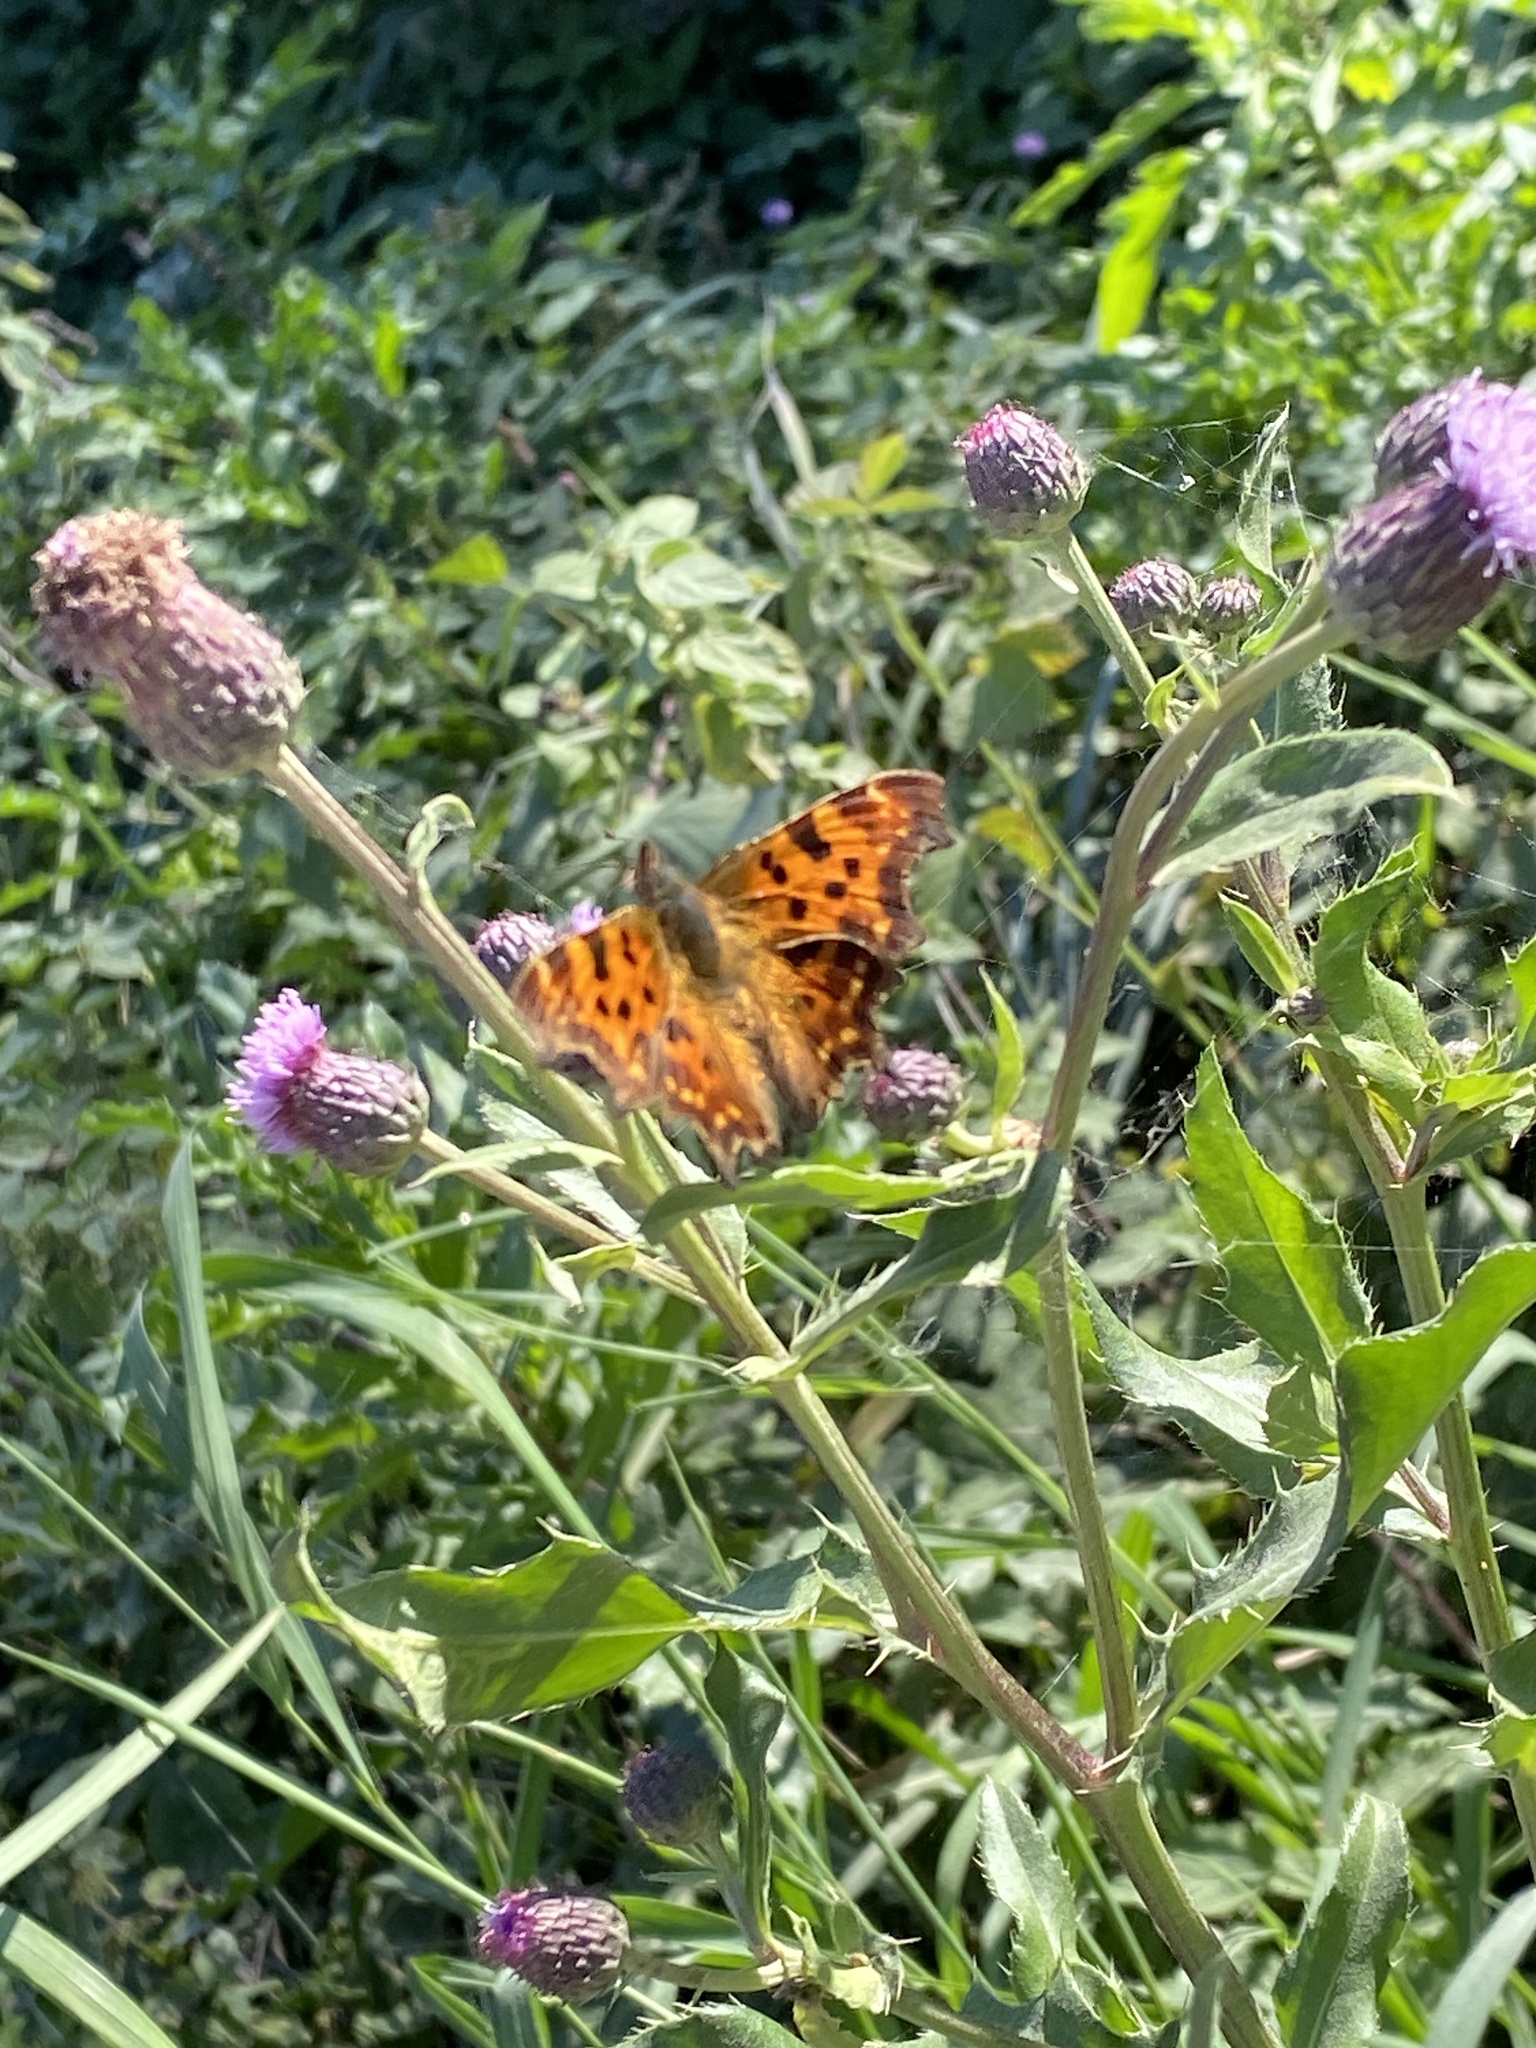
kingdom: Animalia
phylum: Arthropoda
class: Insecta
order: Lepidoptera
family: Nymphalidae
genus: Polygonia
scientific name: Polygonia c-album
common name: Comma
